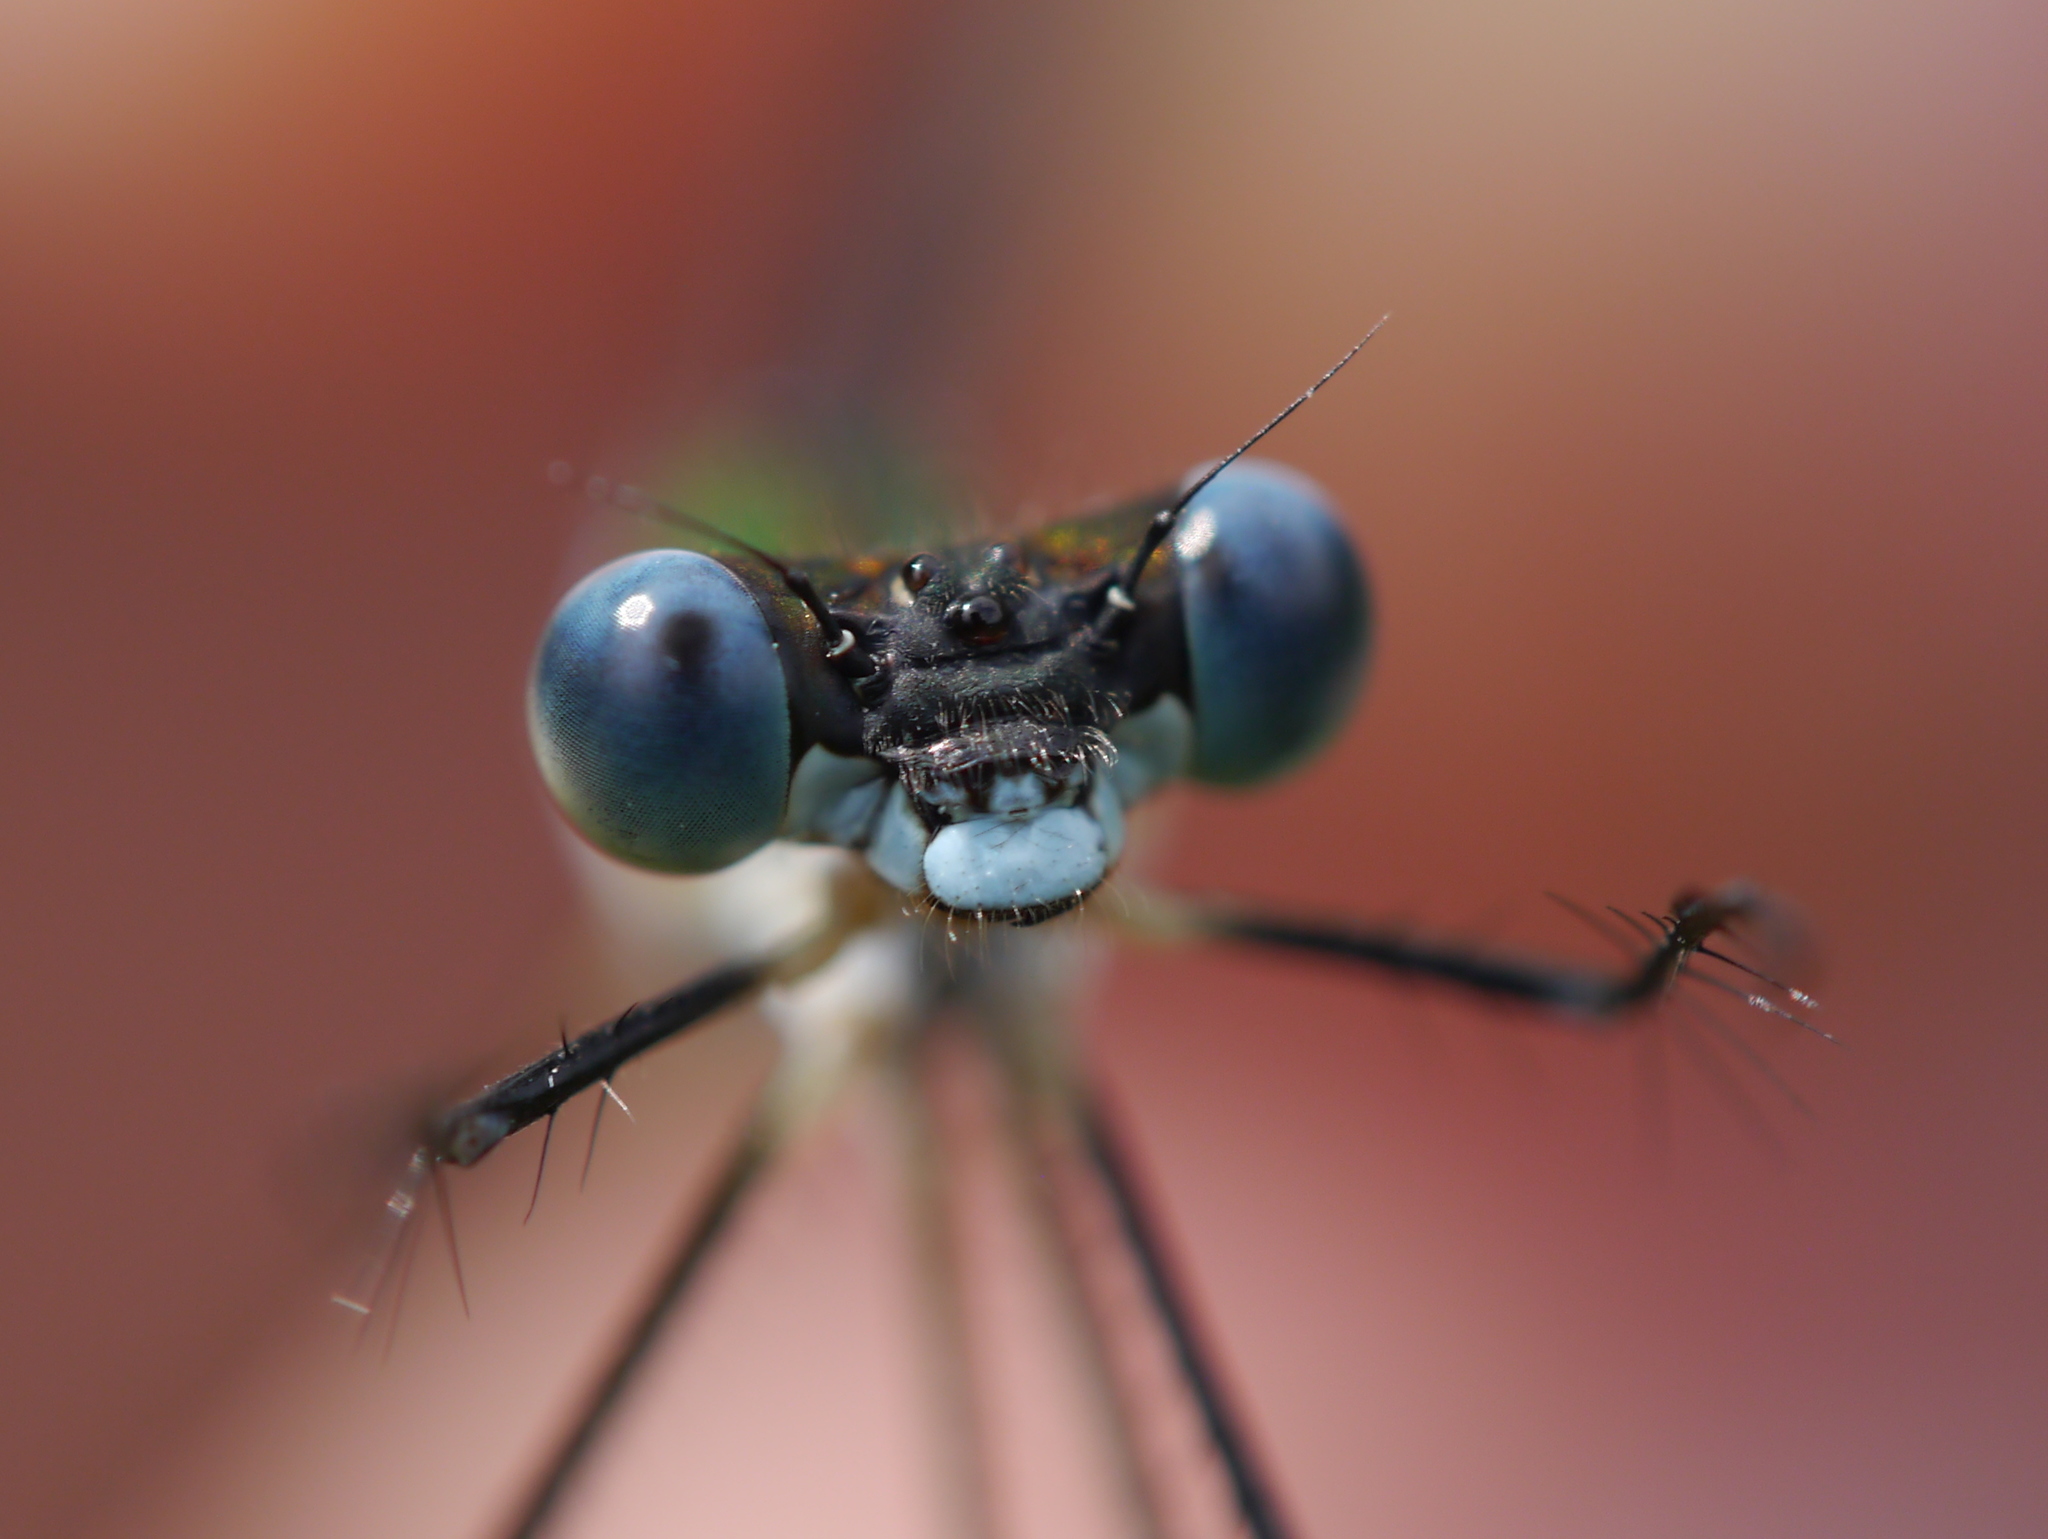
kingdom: Animalia
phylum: Arthropoda
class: Insecta
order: Odonata
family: Lestidae
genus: Lestes
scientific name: Lestes vigilax
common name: Swamp spreadwing
